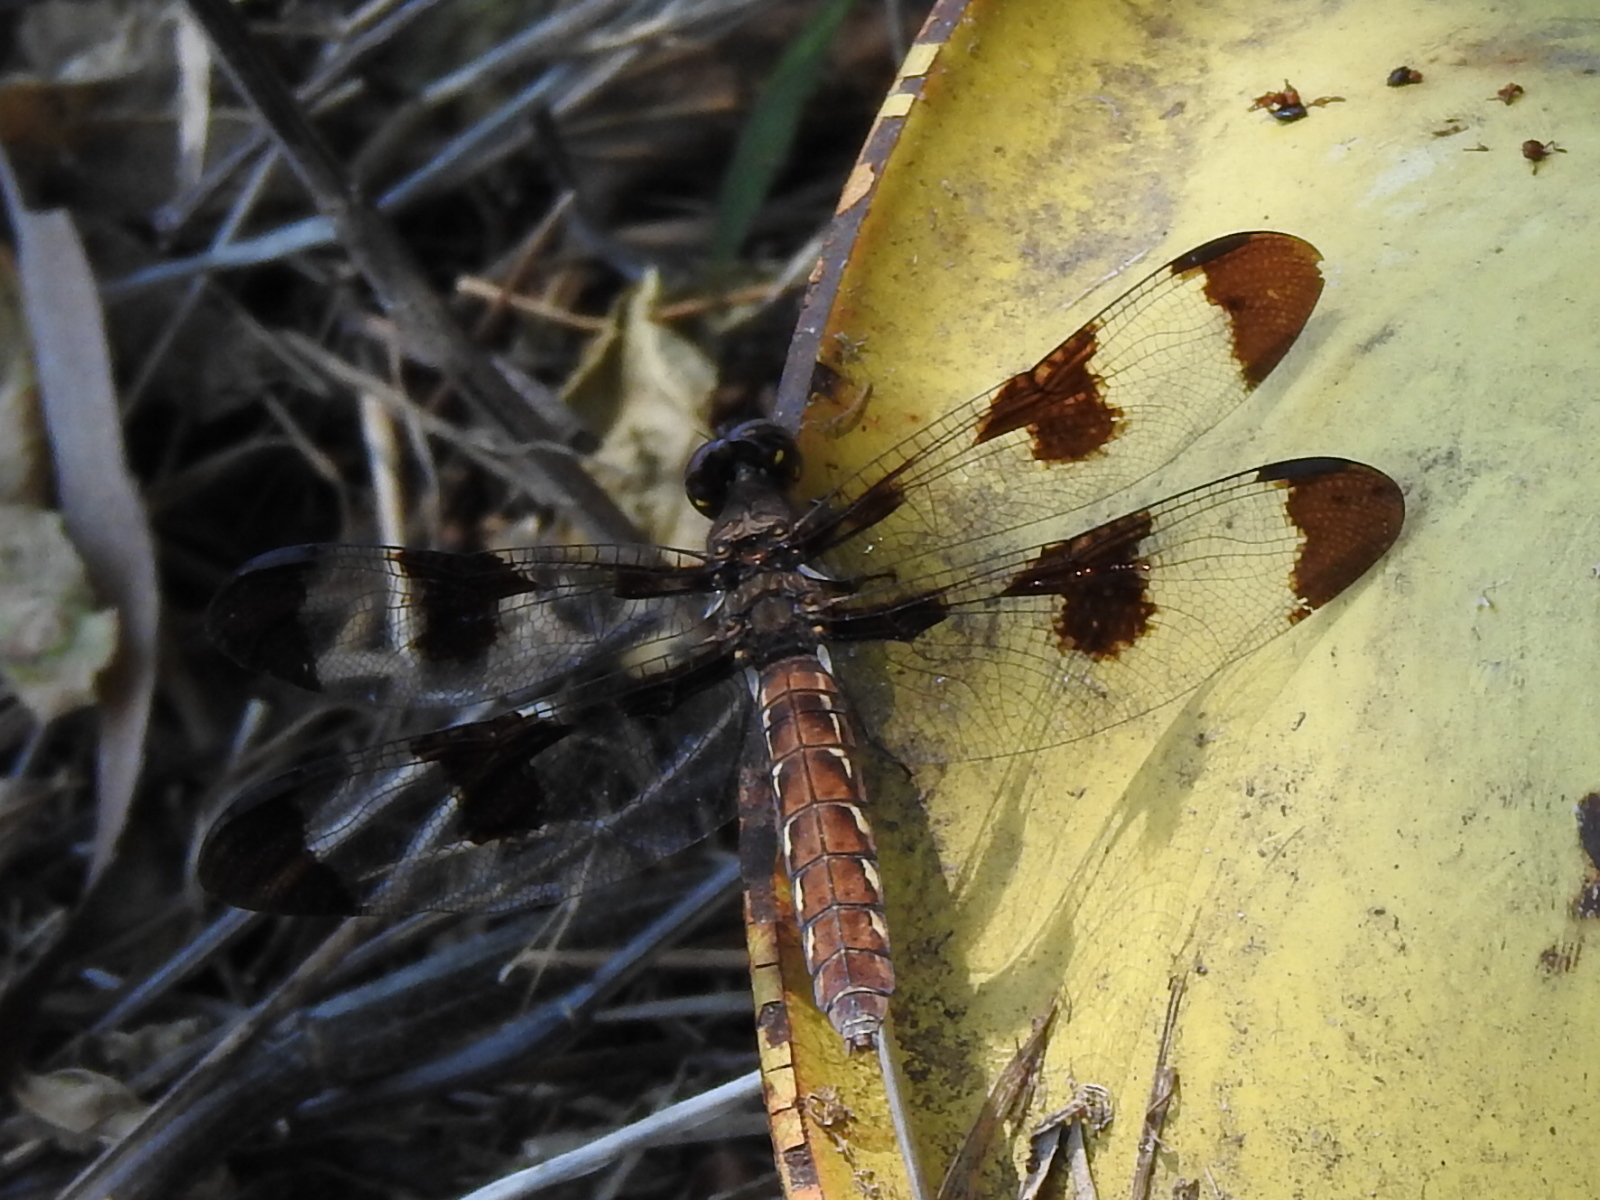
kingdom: Animalia
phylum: Arthropoda
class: Insecta
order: Odonata
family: Libellulidae
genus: Plathemis
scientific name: Plathemis lydia
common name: Common whitetail
